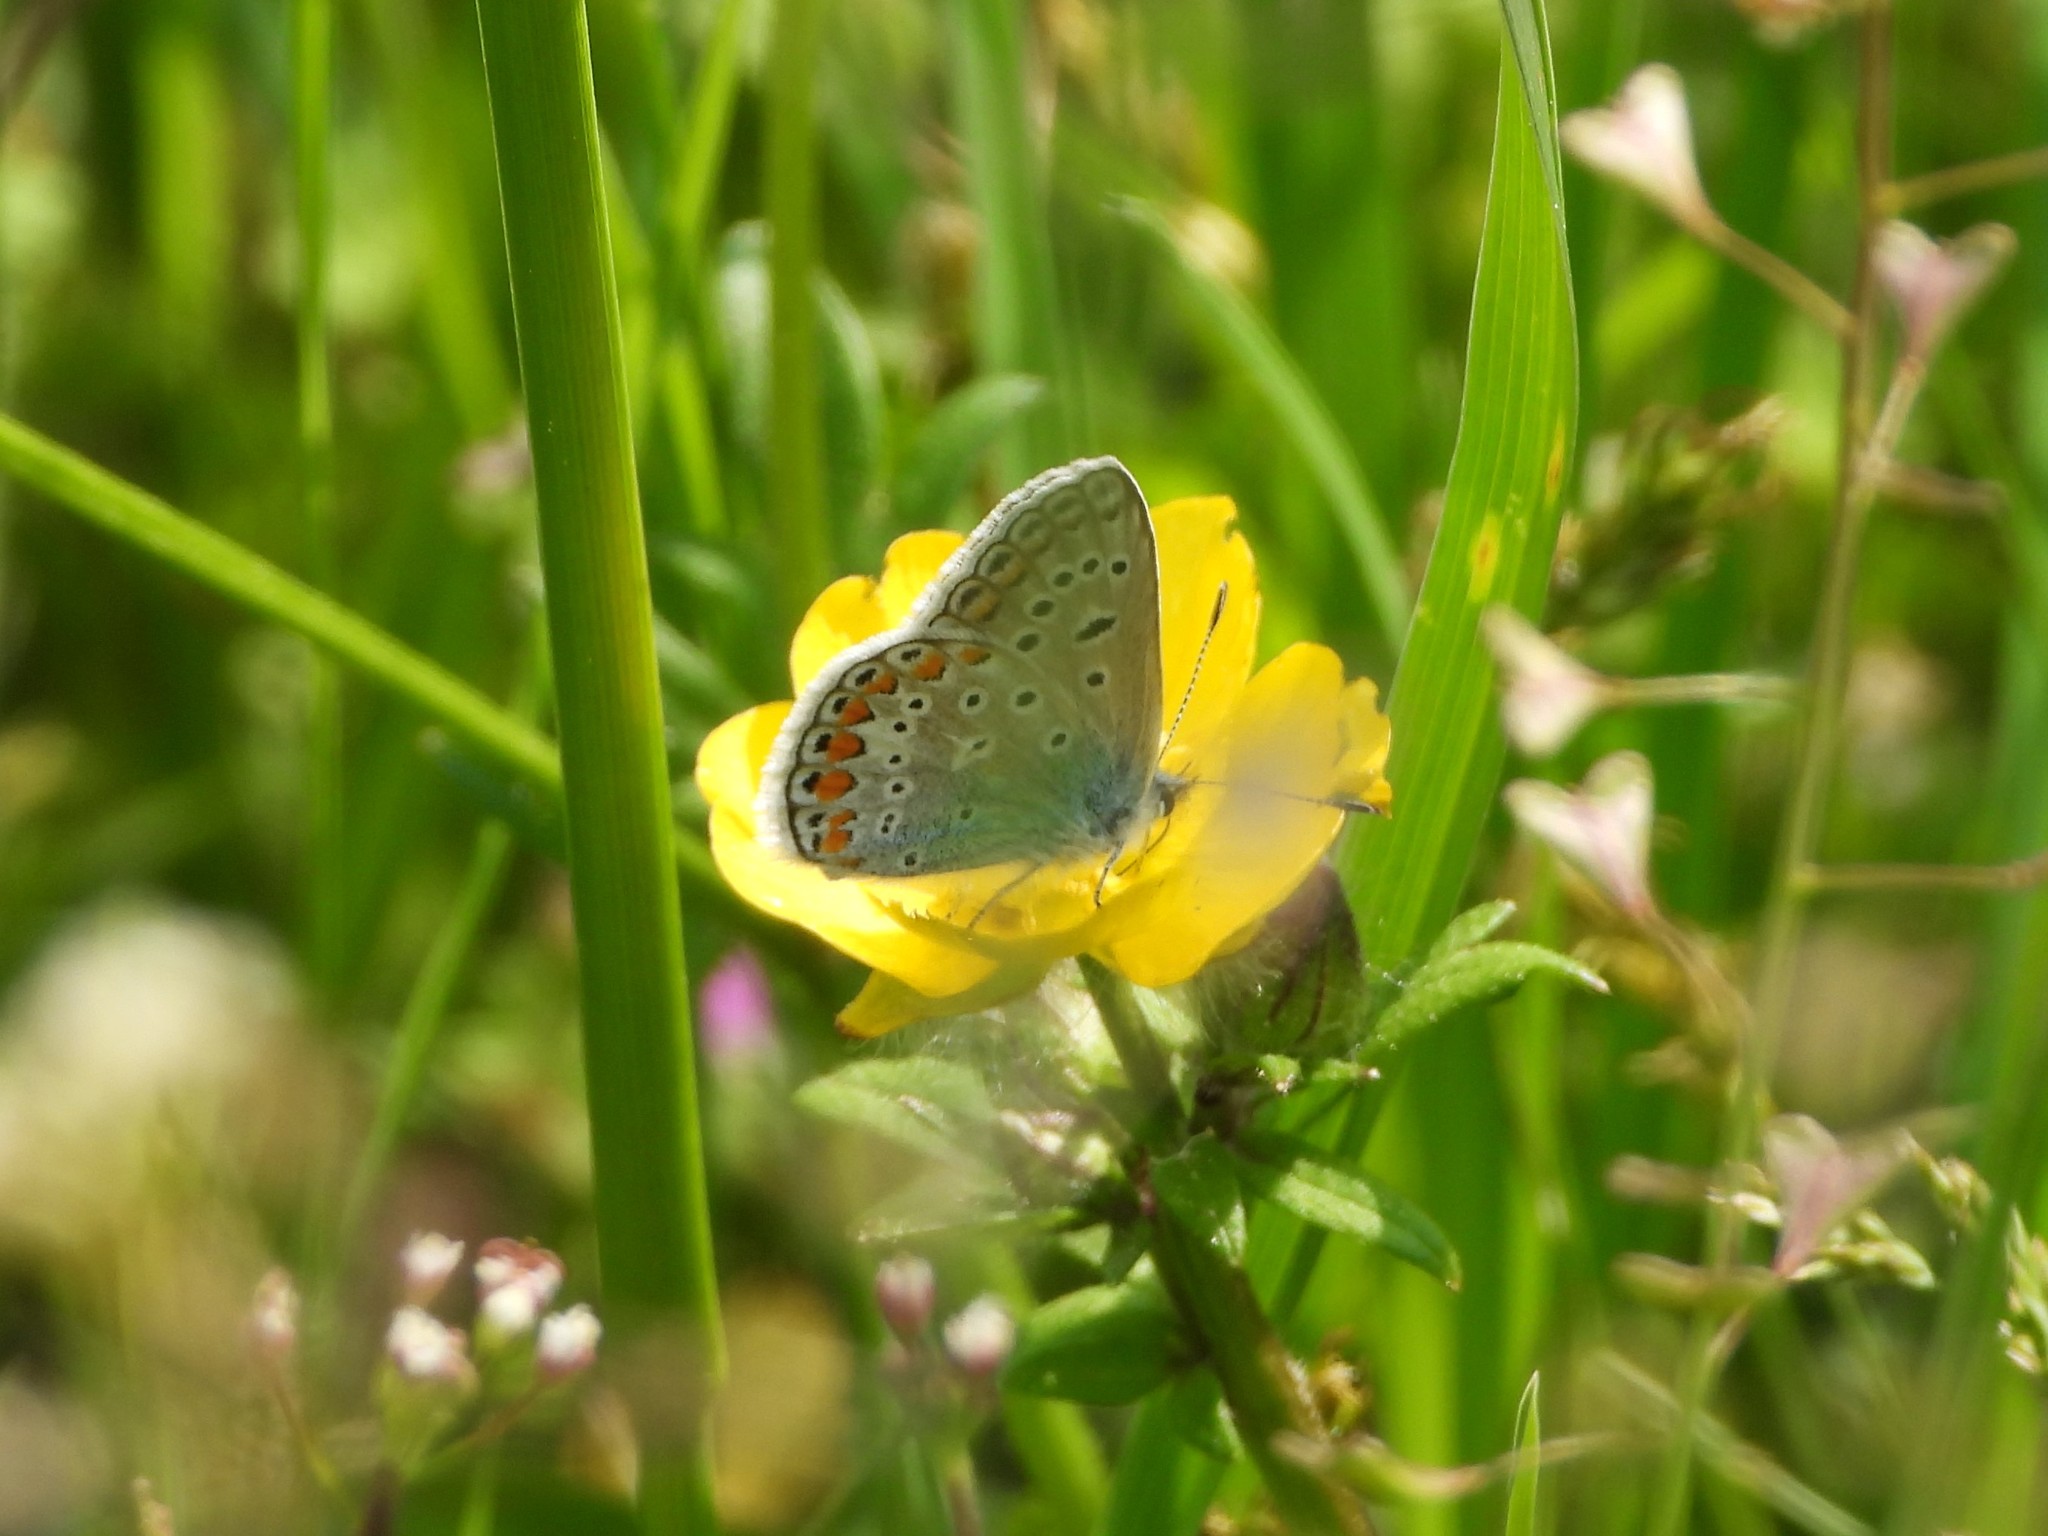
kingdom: Animalia
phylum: Arthropoda
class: Insecta
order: Lepidoptera
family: Lycaenidae
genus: Polyommatus
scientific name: Polyommatus icarus
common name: Common blue
